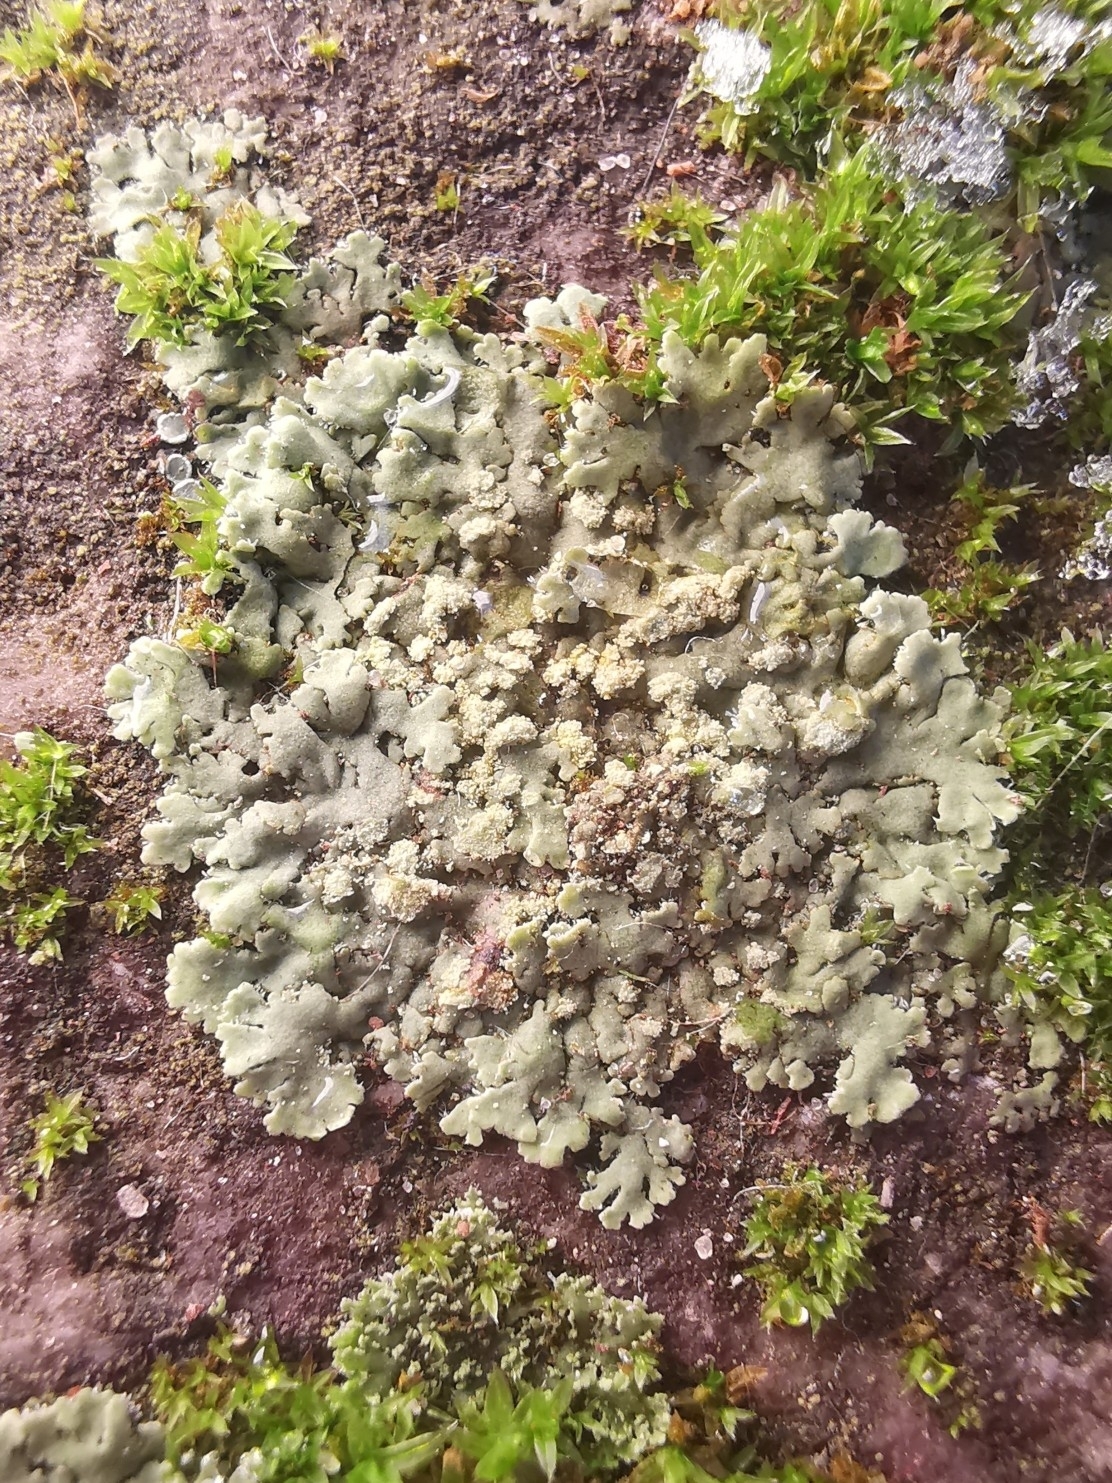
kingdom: Fungi
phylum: Ascomycota
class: Lecanoromycetes
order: Caliciales
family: Physciaceae
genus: Phaeophyscia
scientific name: Phaeophyscia orbicularis
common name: Mealy shadow lichen
